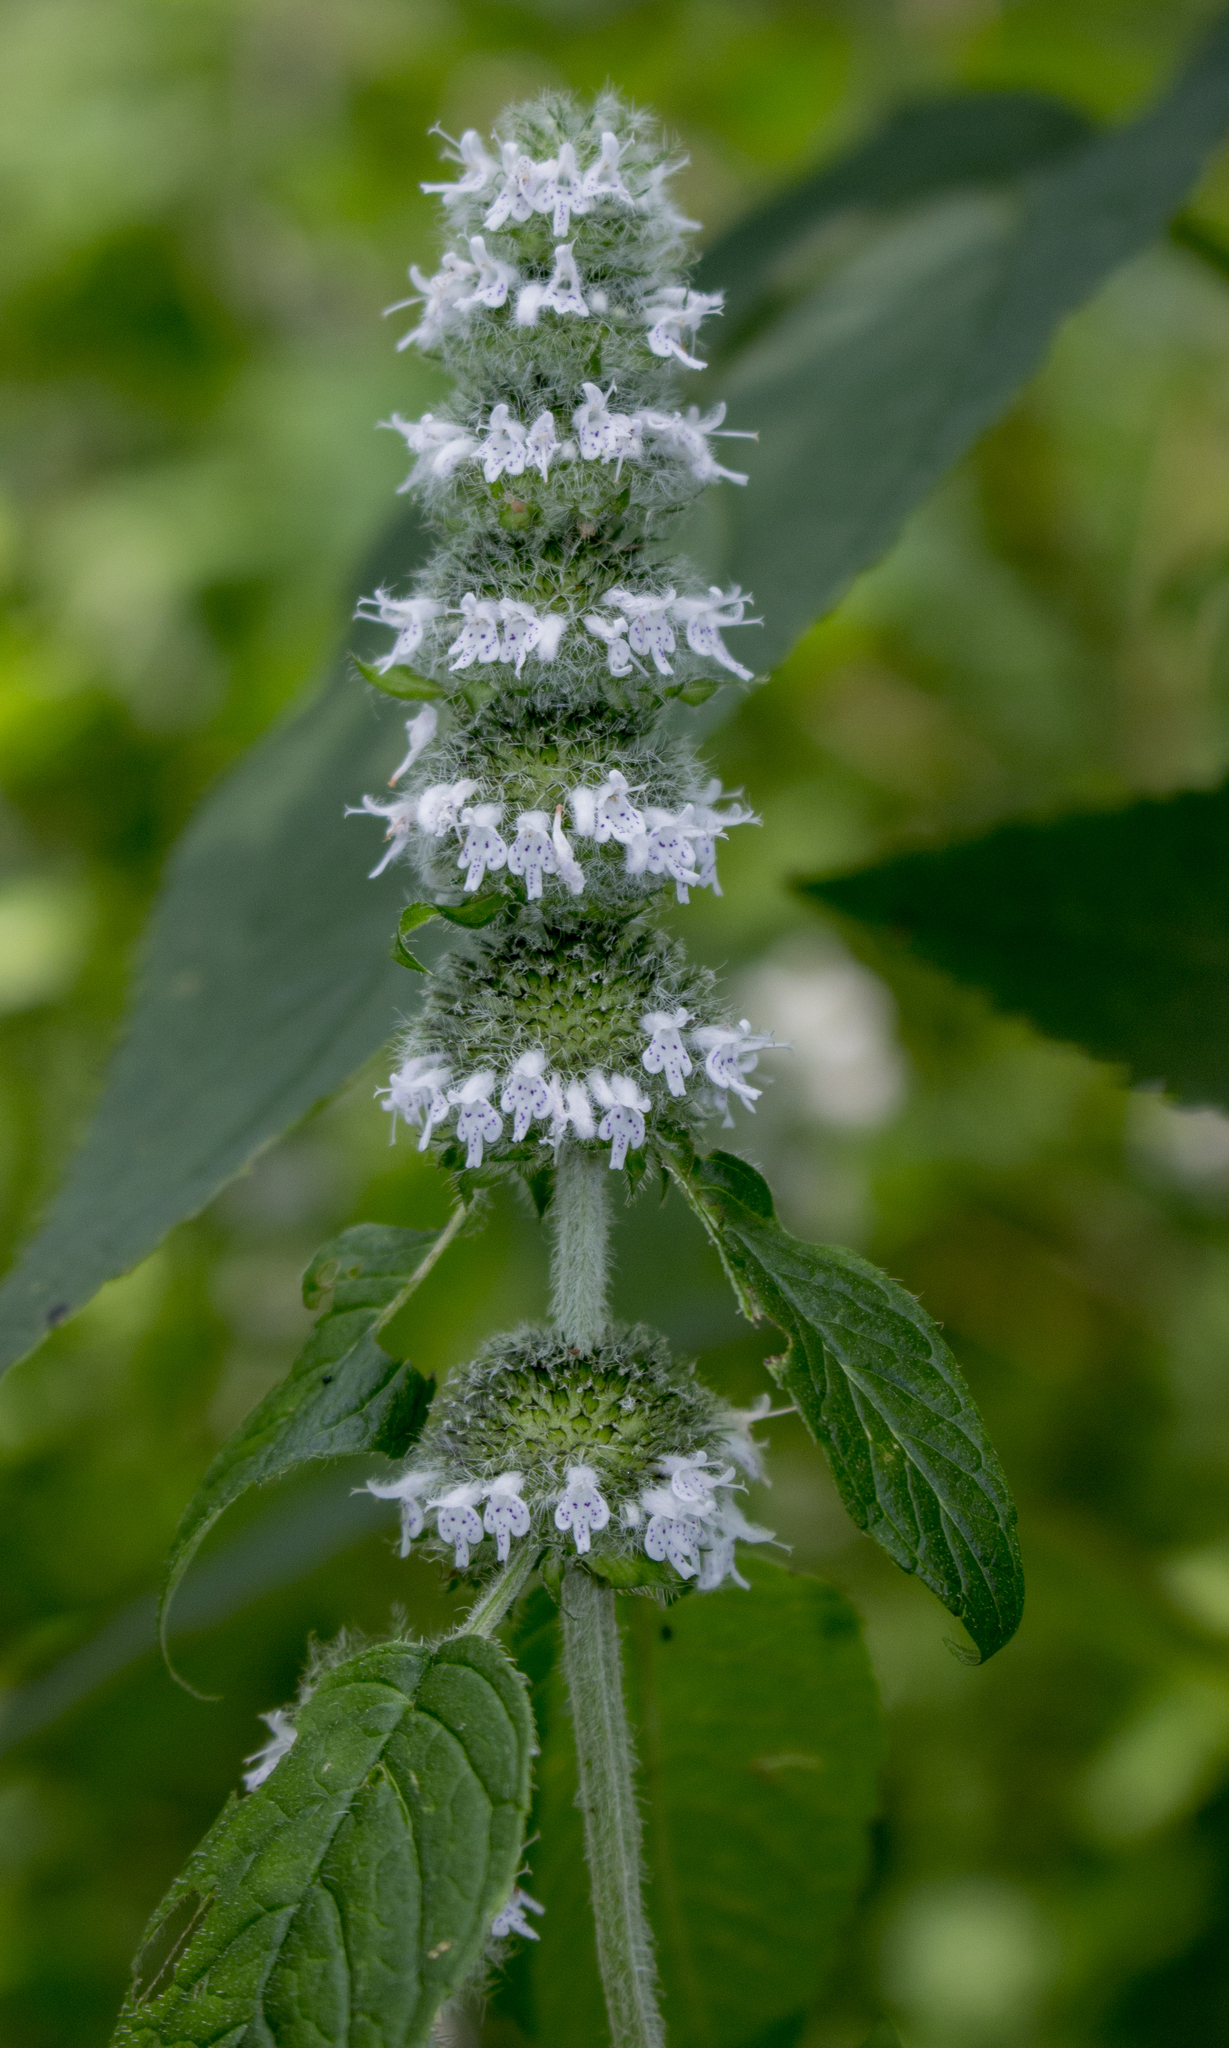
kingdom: Plantae
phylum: Tracheophyta
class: Magnoliopsida
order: Lamiales
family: Lamiaceae
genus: Blephilia
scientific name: Blephilia hirsuta
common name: Hairy blephilia
